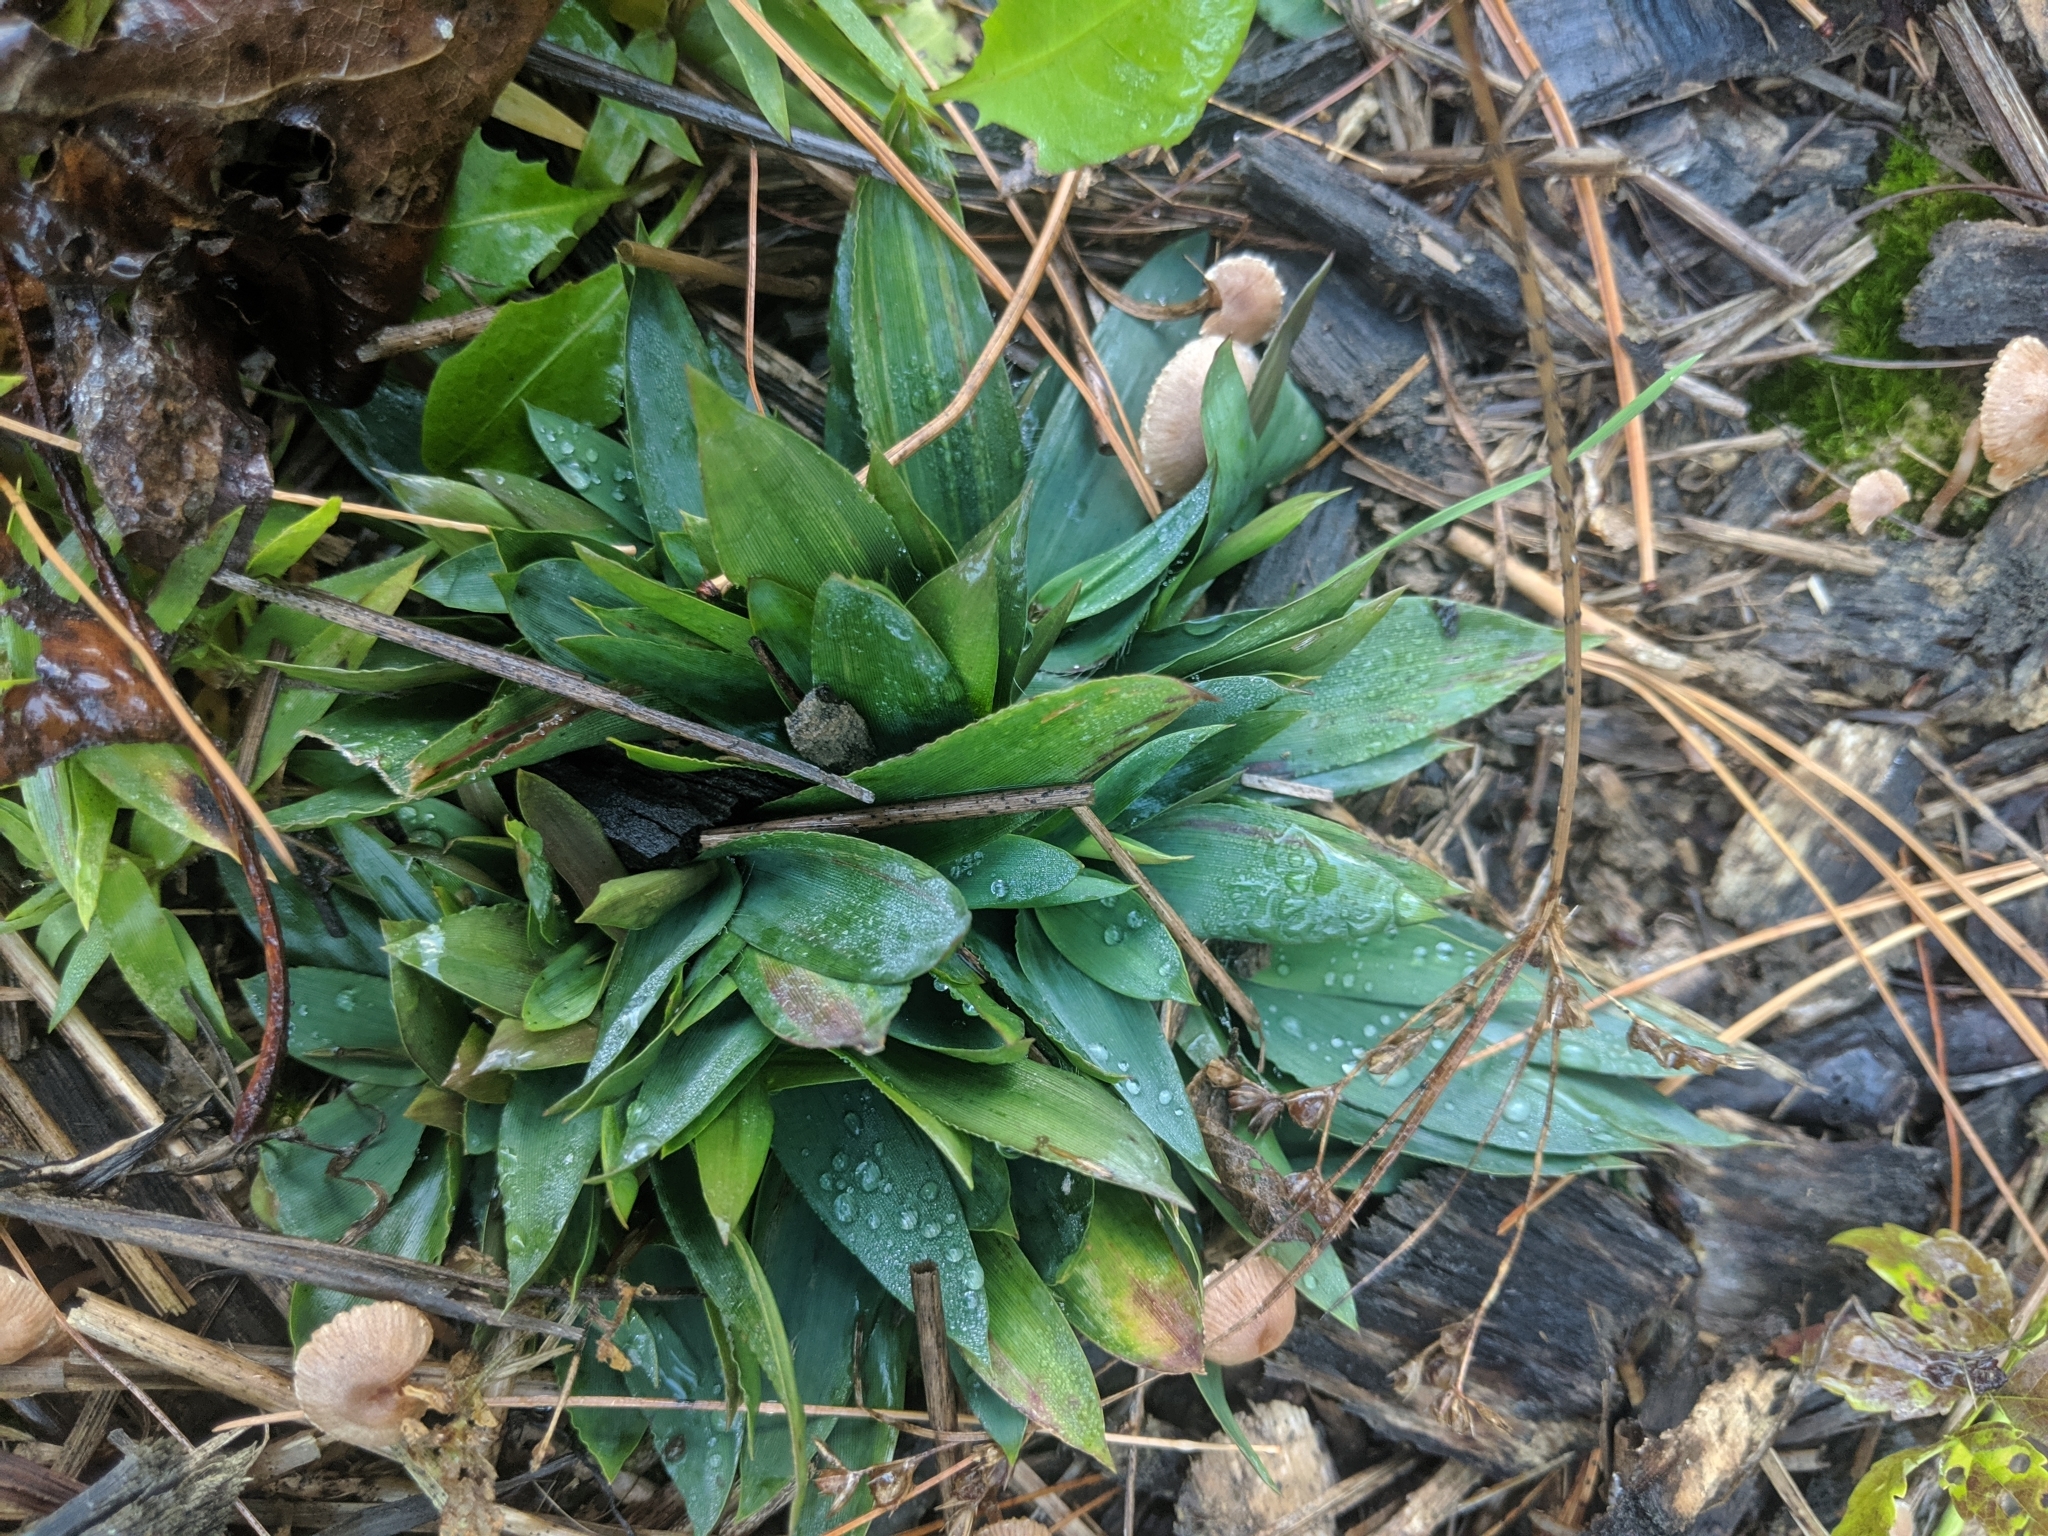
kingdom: Plantae
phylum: Tracheophyta
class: Liliopsida
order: Poales
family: Poaceae
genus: Dichanthelium
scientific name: Dichanthelium
